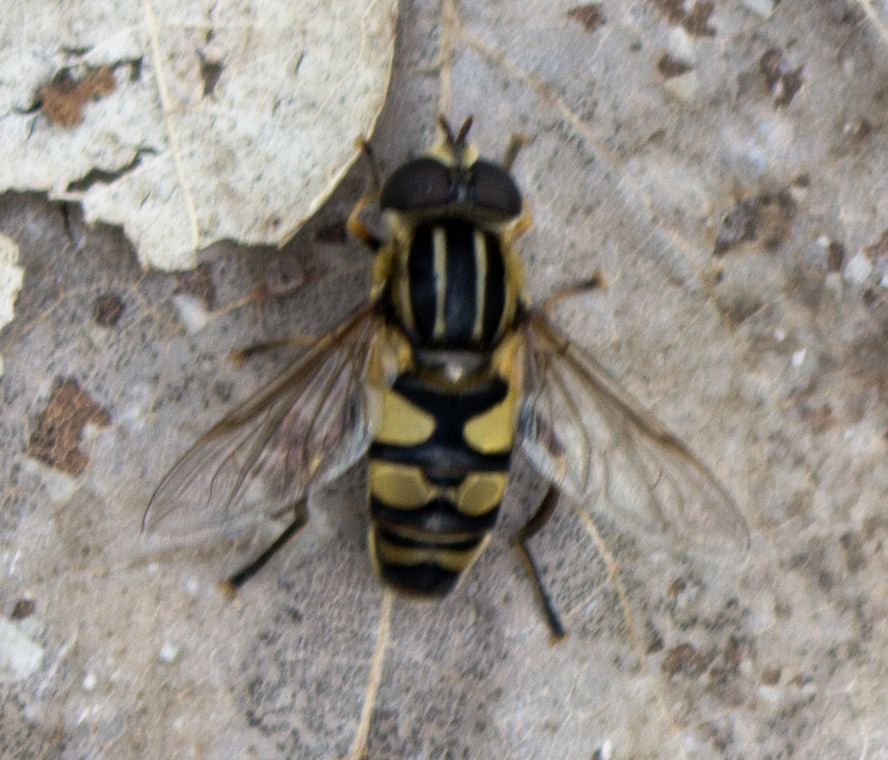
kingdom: Animalia
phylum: Arthropoda
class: Insecta
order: Diptera
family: Syrphidae
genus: Helophilus
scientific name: Helophilus fasciatus
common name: Narrow-headed marsh fly
